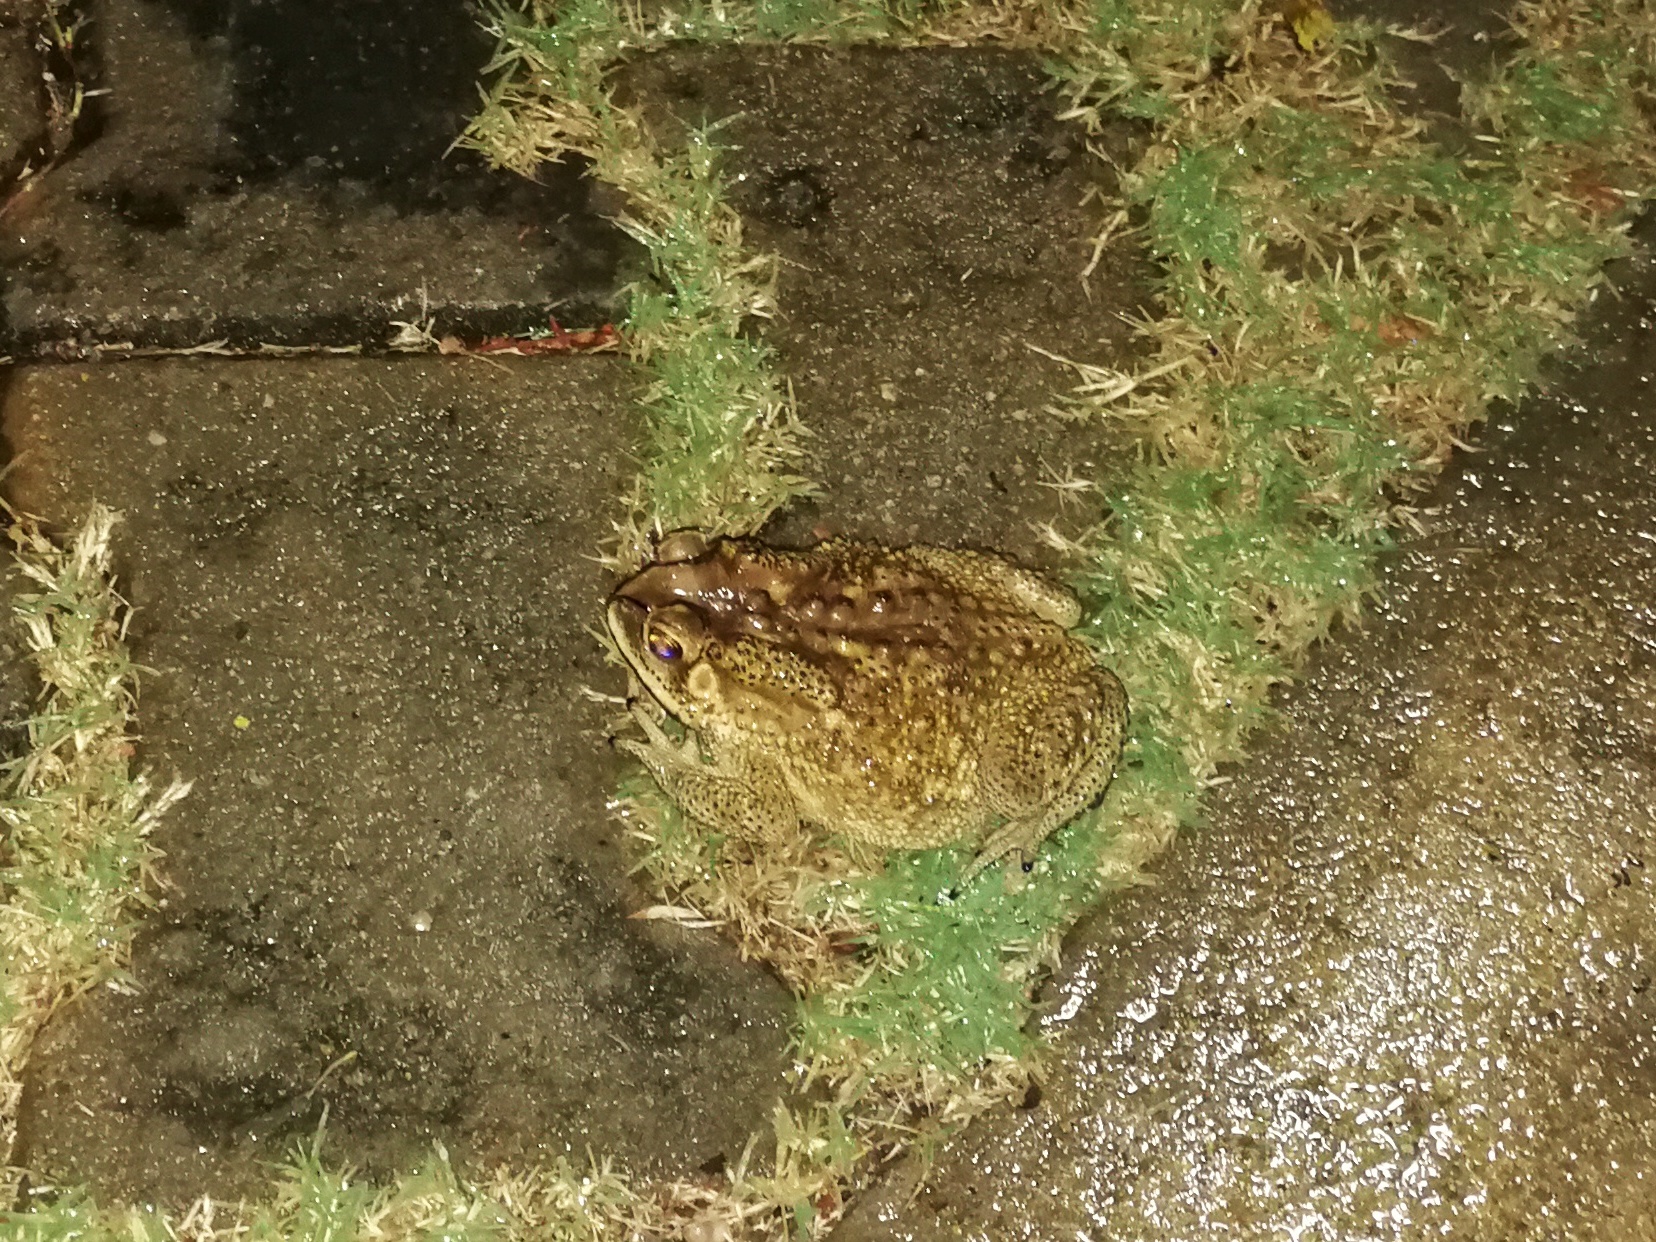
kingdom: Animalia
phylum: Chordata
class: Amphibia
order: Anura
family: Bufonidae
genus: Duttaphrynus
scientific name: Duttaphrynus melanostictus
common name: Common sunda toad
